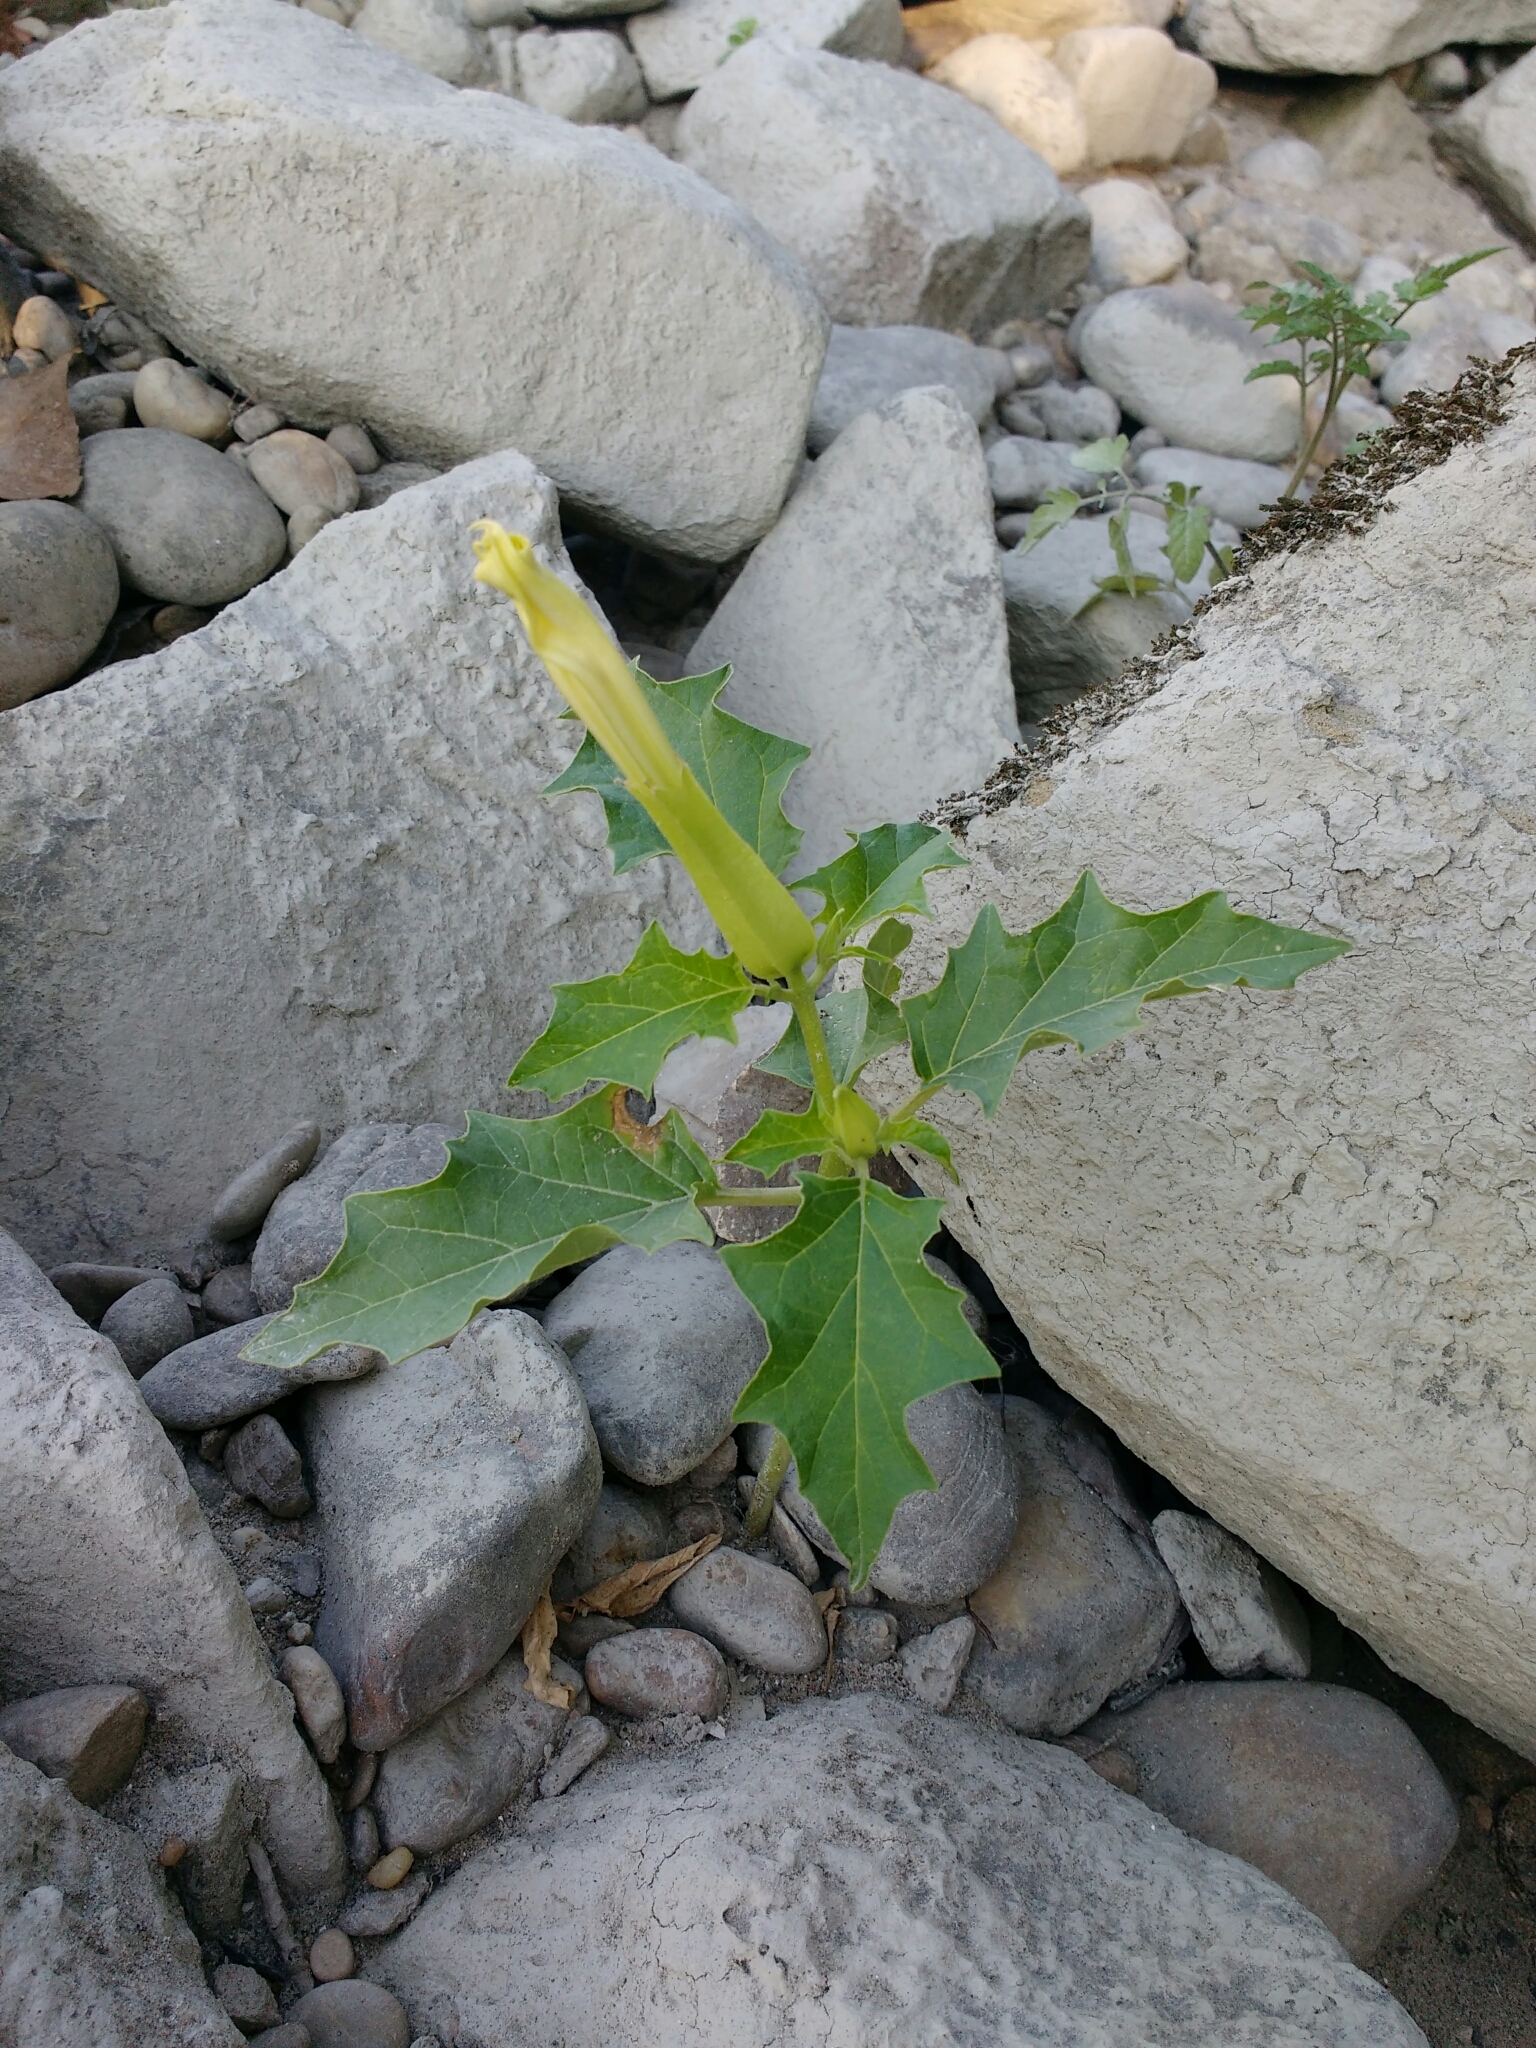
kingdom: Plantae
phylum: Tracheophyta
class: Magnoliopsida
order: Solanales
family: Solanaceae
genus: Datura
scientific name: Datura stramonium
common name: Thorn-apple
